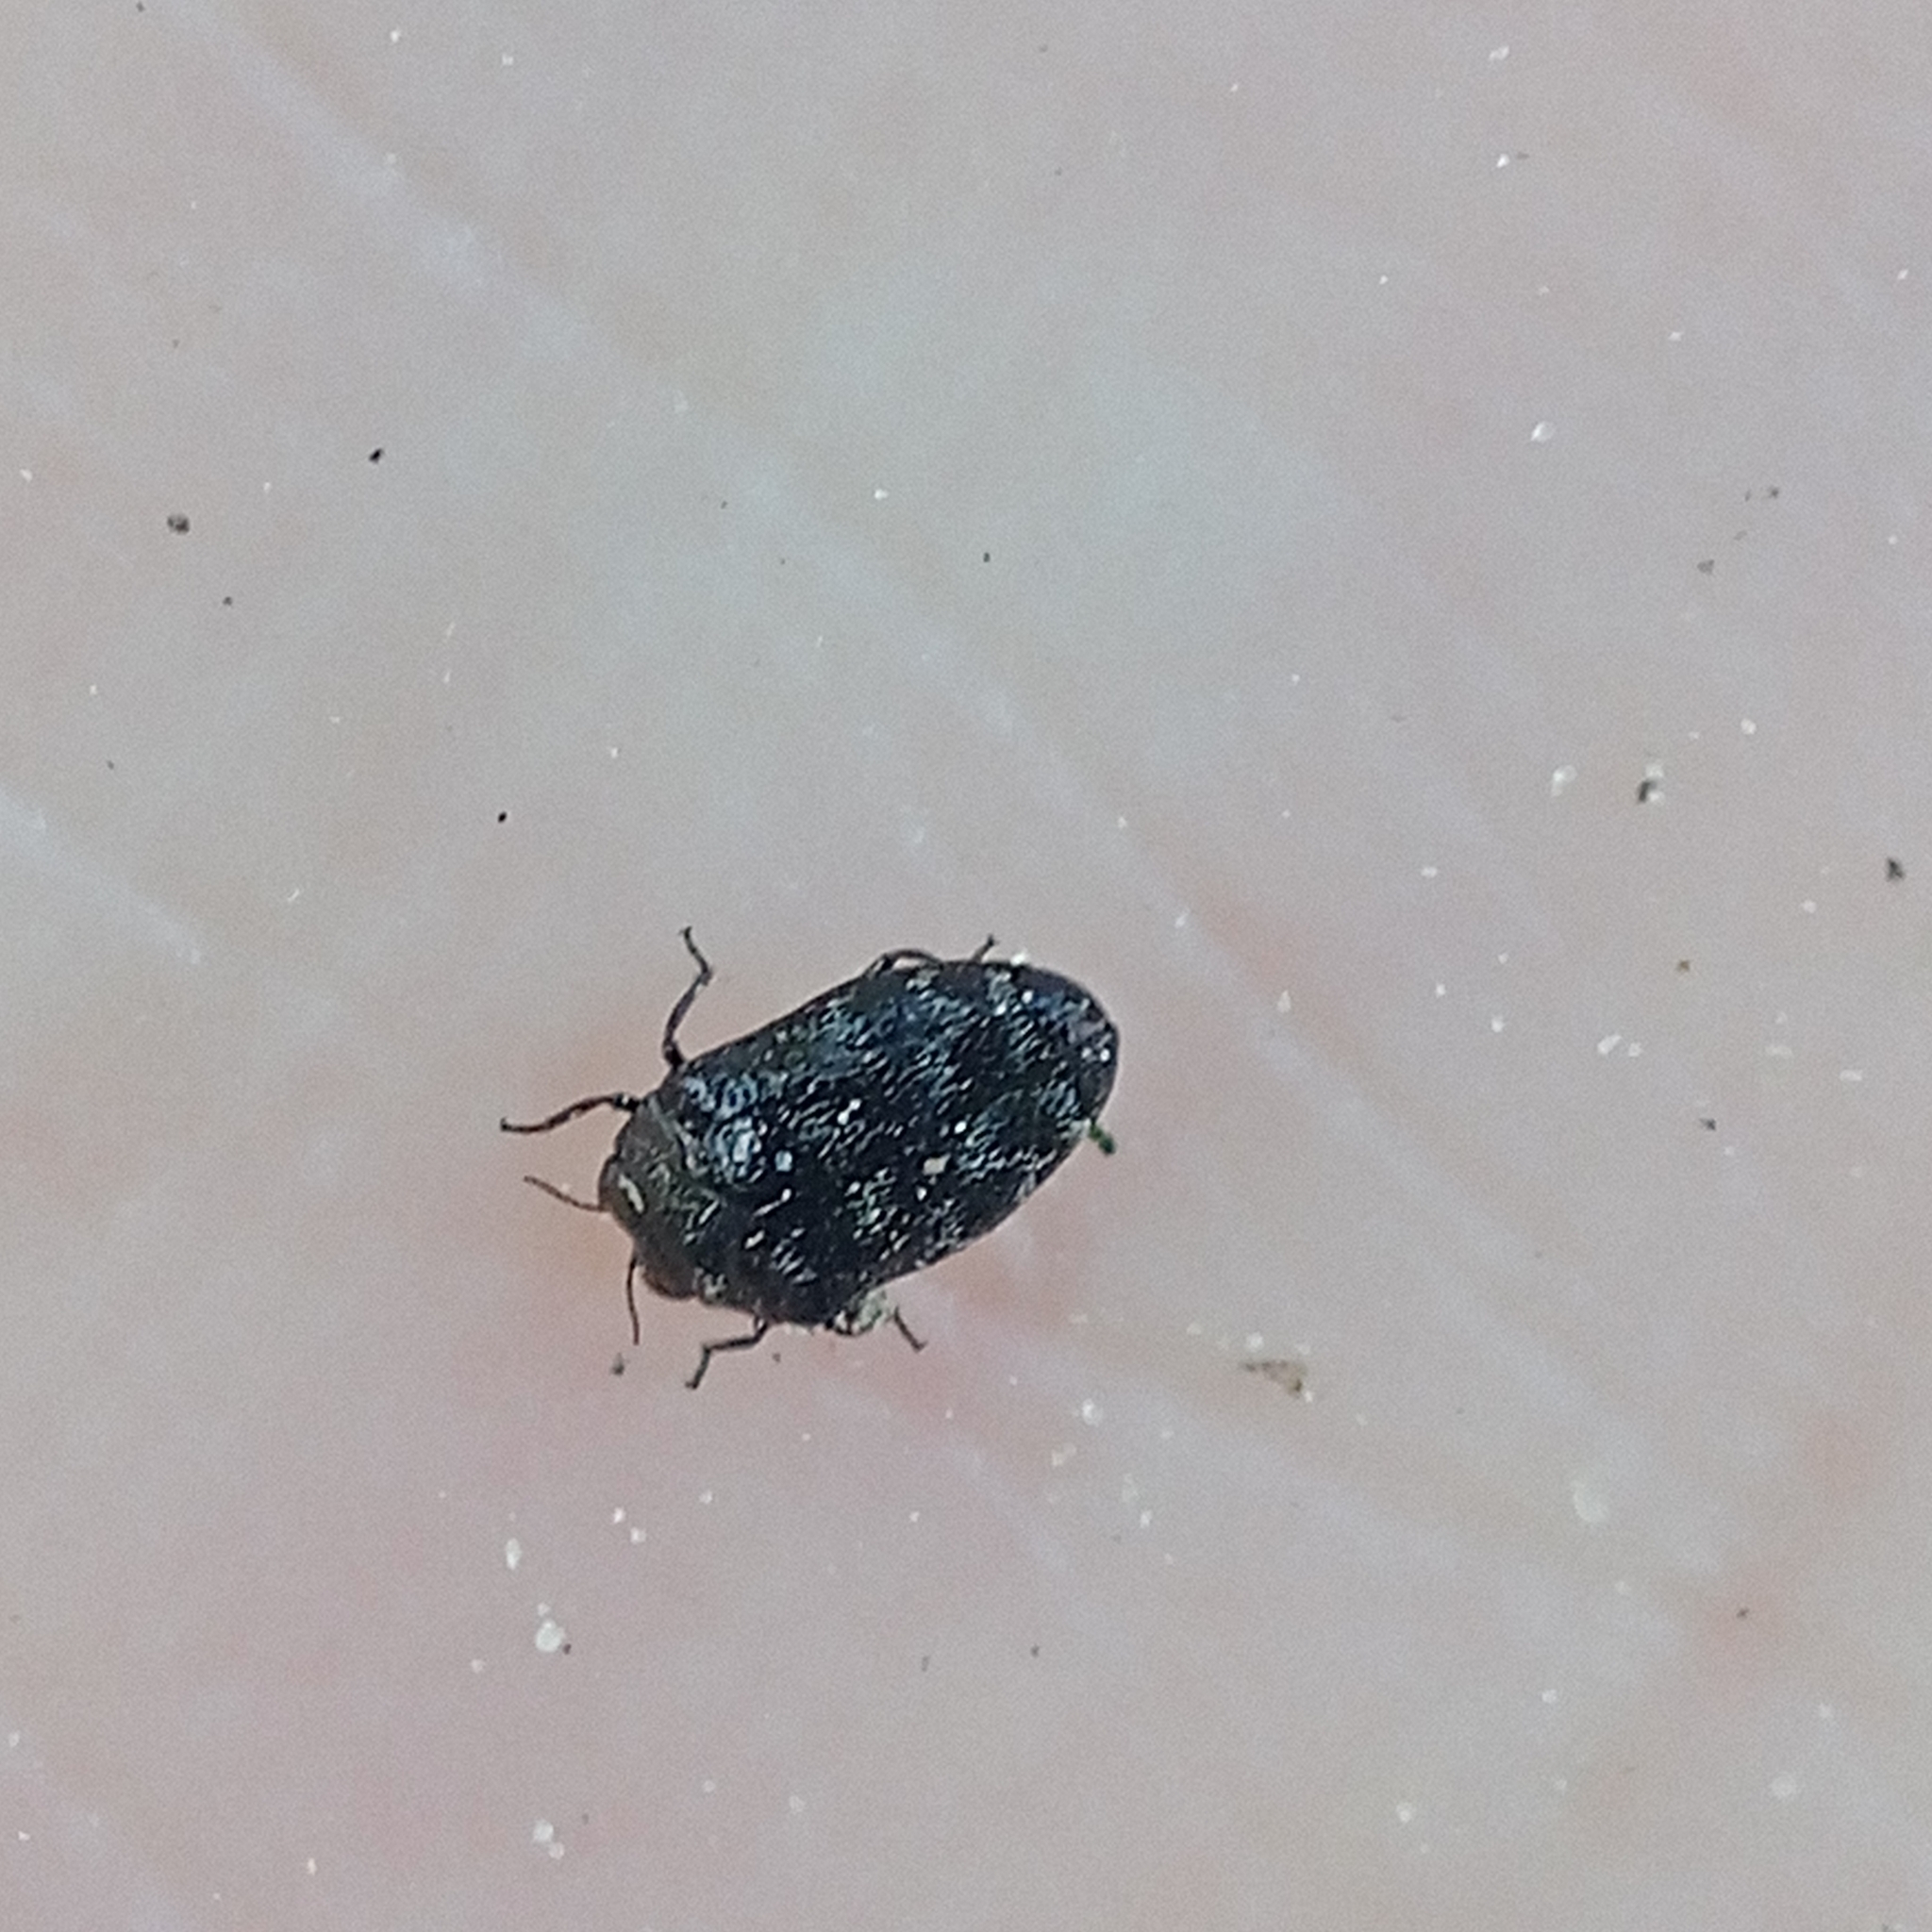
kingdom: Animalia
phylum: Arthropoda
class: Insecta
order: Coleoptera
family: Buprestidae
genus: Trachys
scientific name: Trachys minutus
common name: Metallic wood-boring beetle
